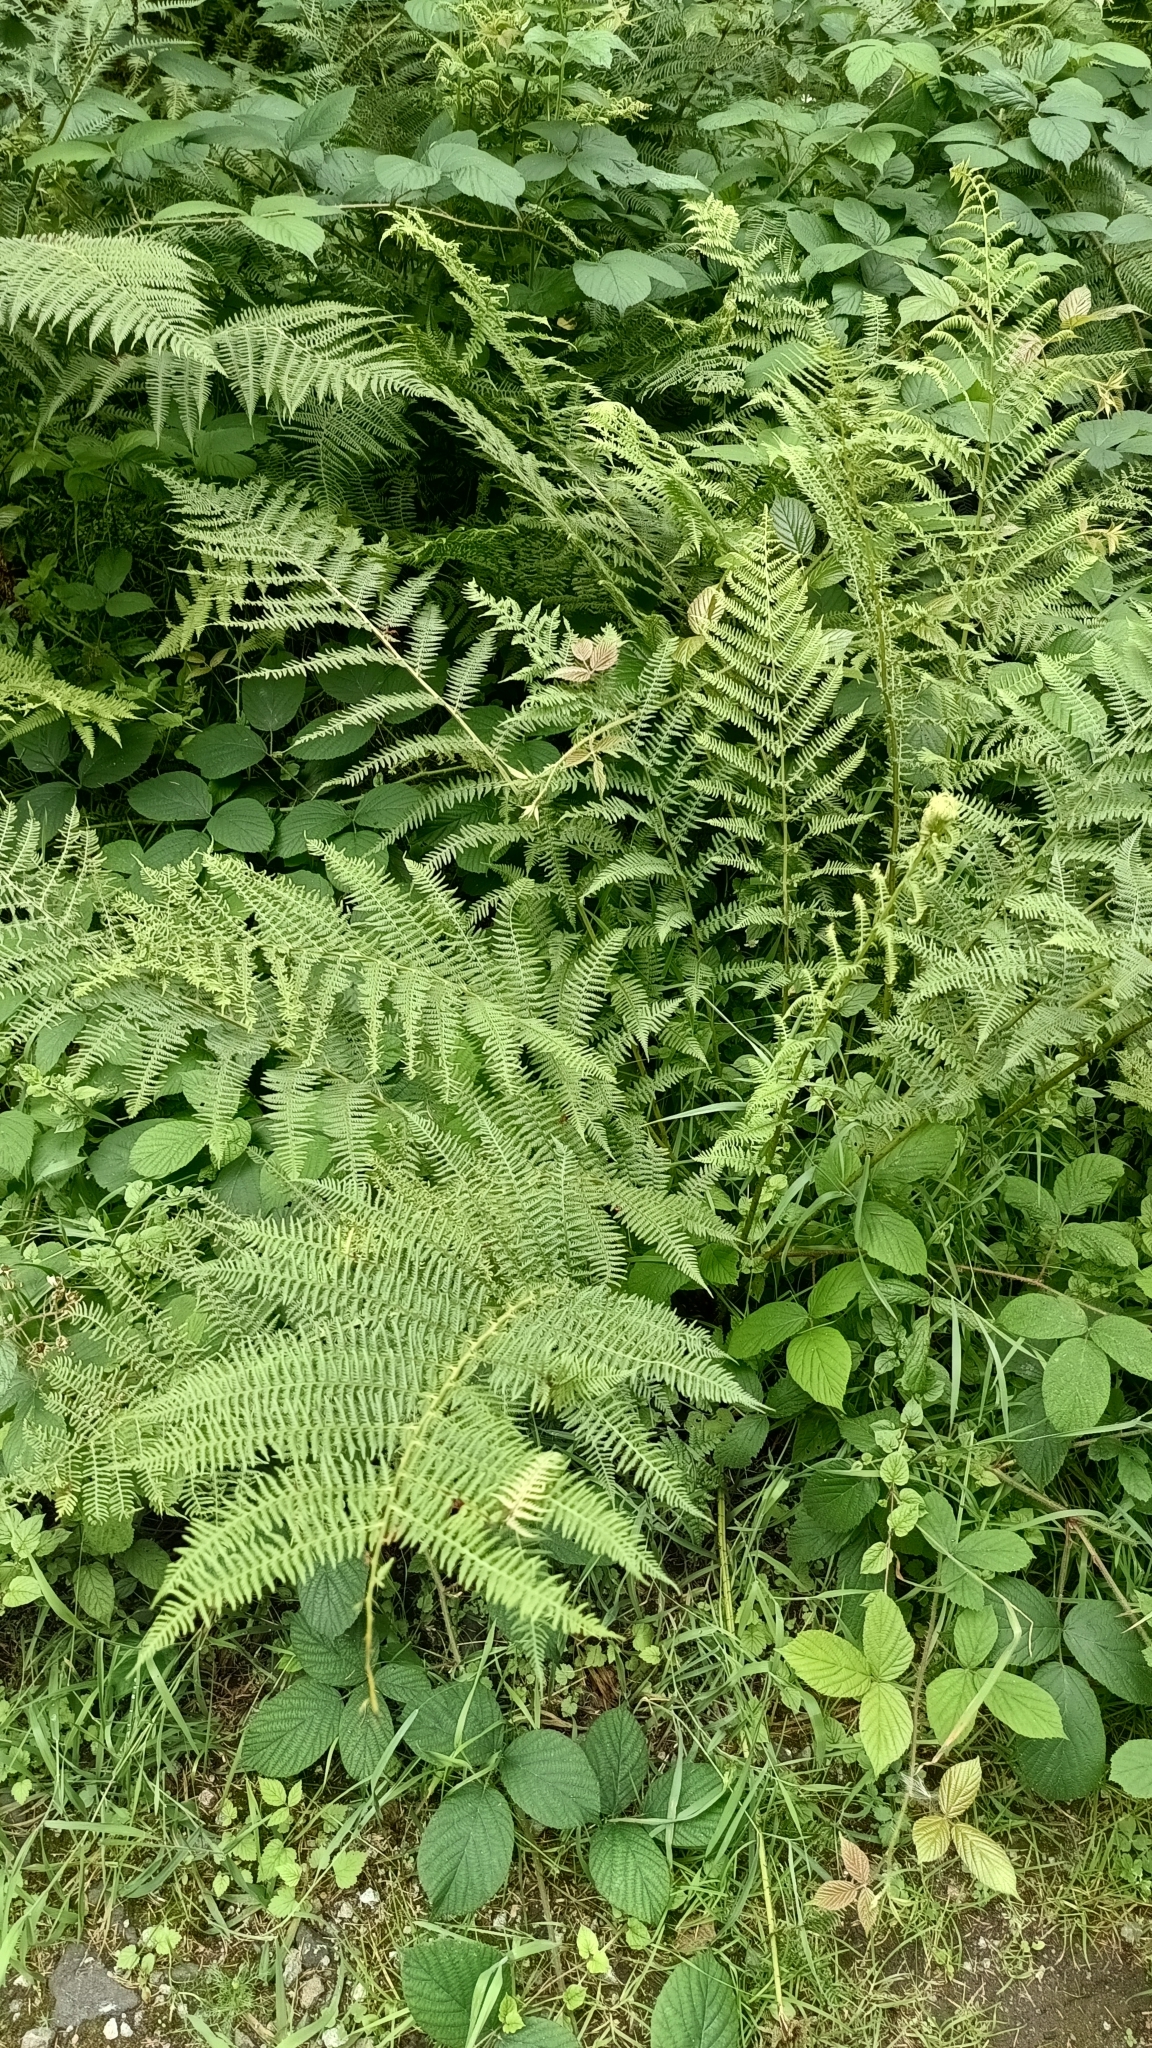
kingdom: Plantae
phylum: Tracheophyta
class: Polypodiopsida
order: Polypodiales
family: Athyriaceae
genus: Athyrium
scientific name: Athyrium filix-femina
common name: Lady fern
